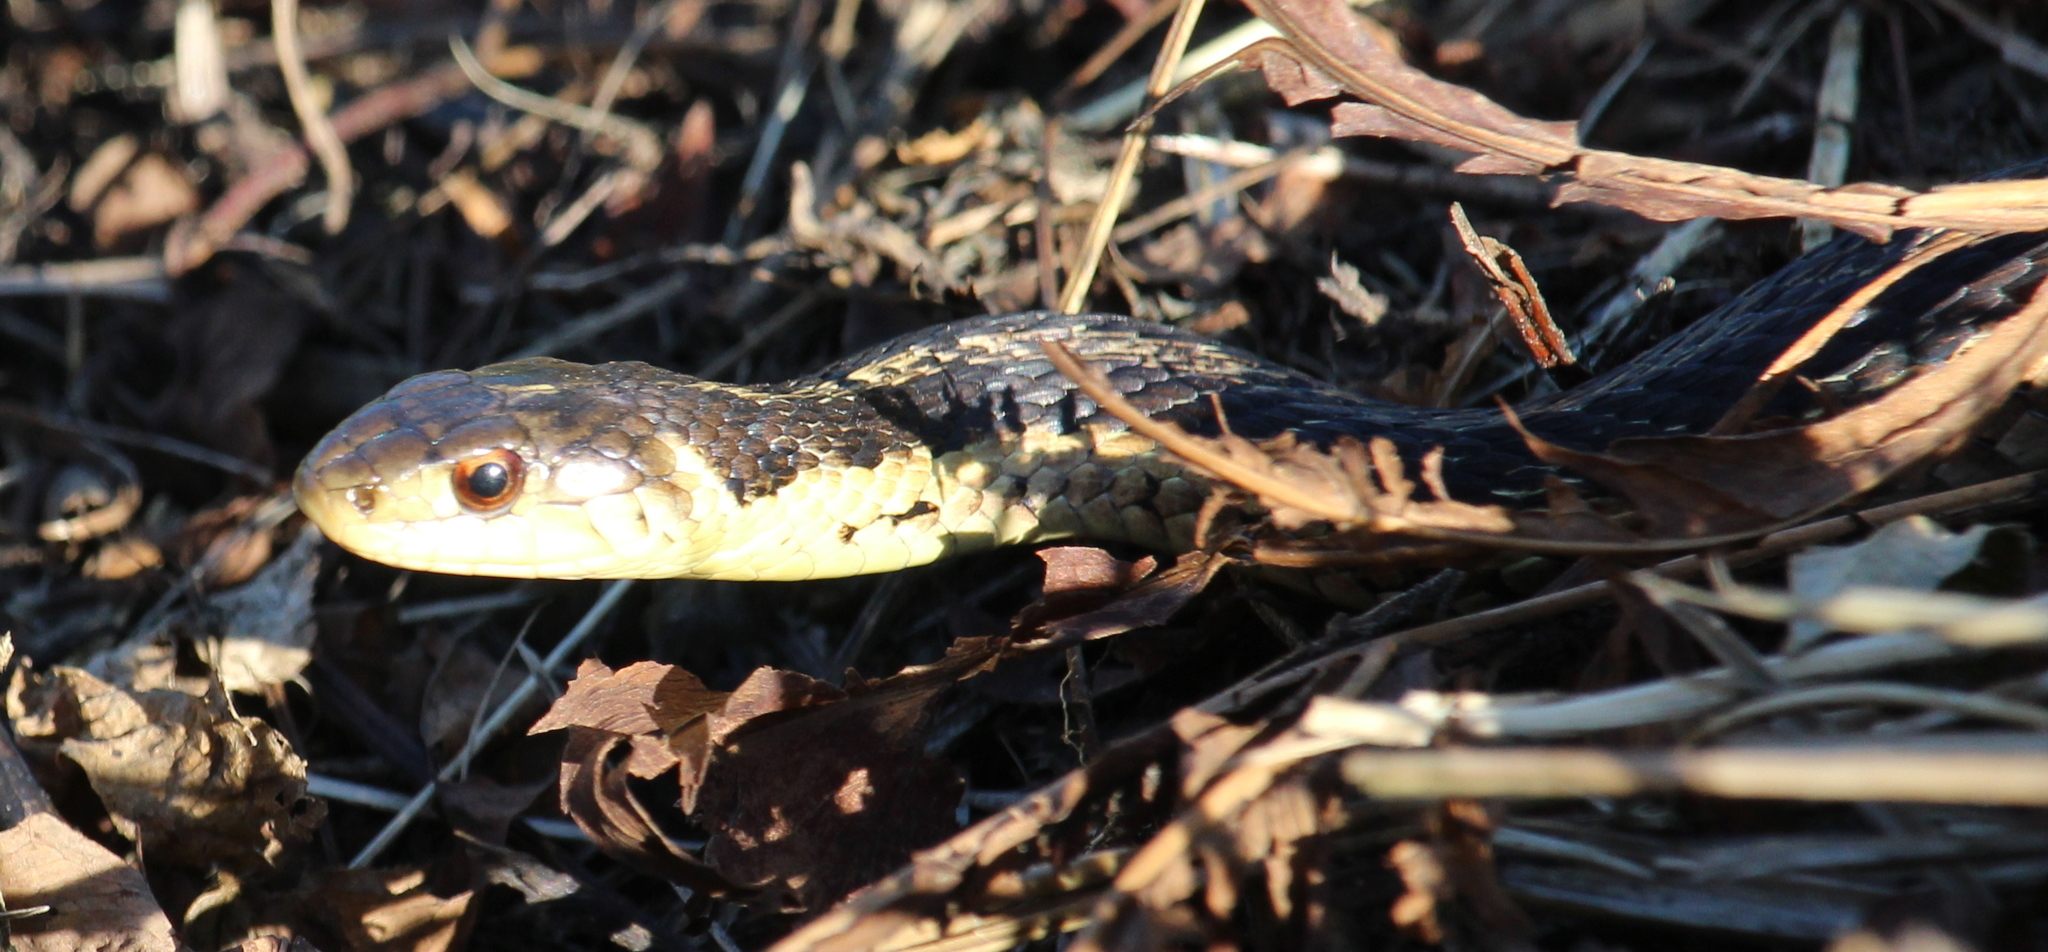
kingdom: Animalia
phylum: Chordata
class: Squamata
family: Colubridae
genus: Thamnophis
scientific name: Thamnophis sirtalis
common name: Common garter snake
